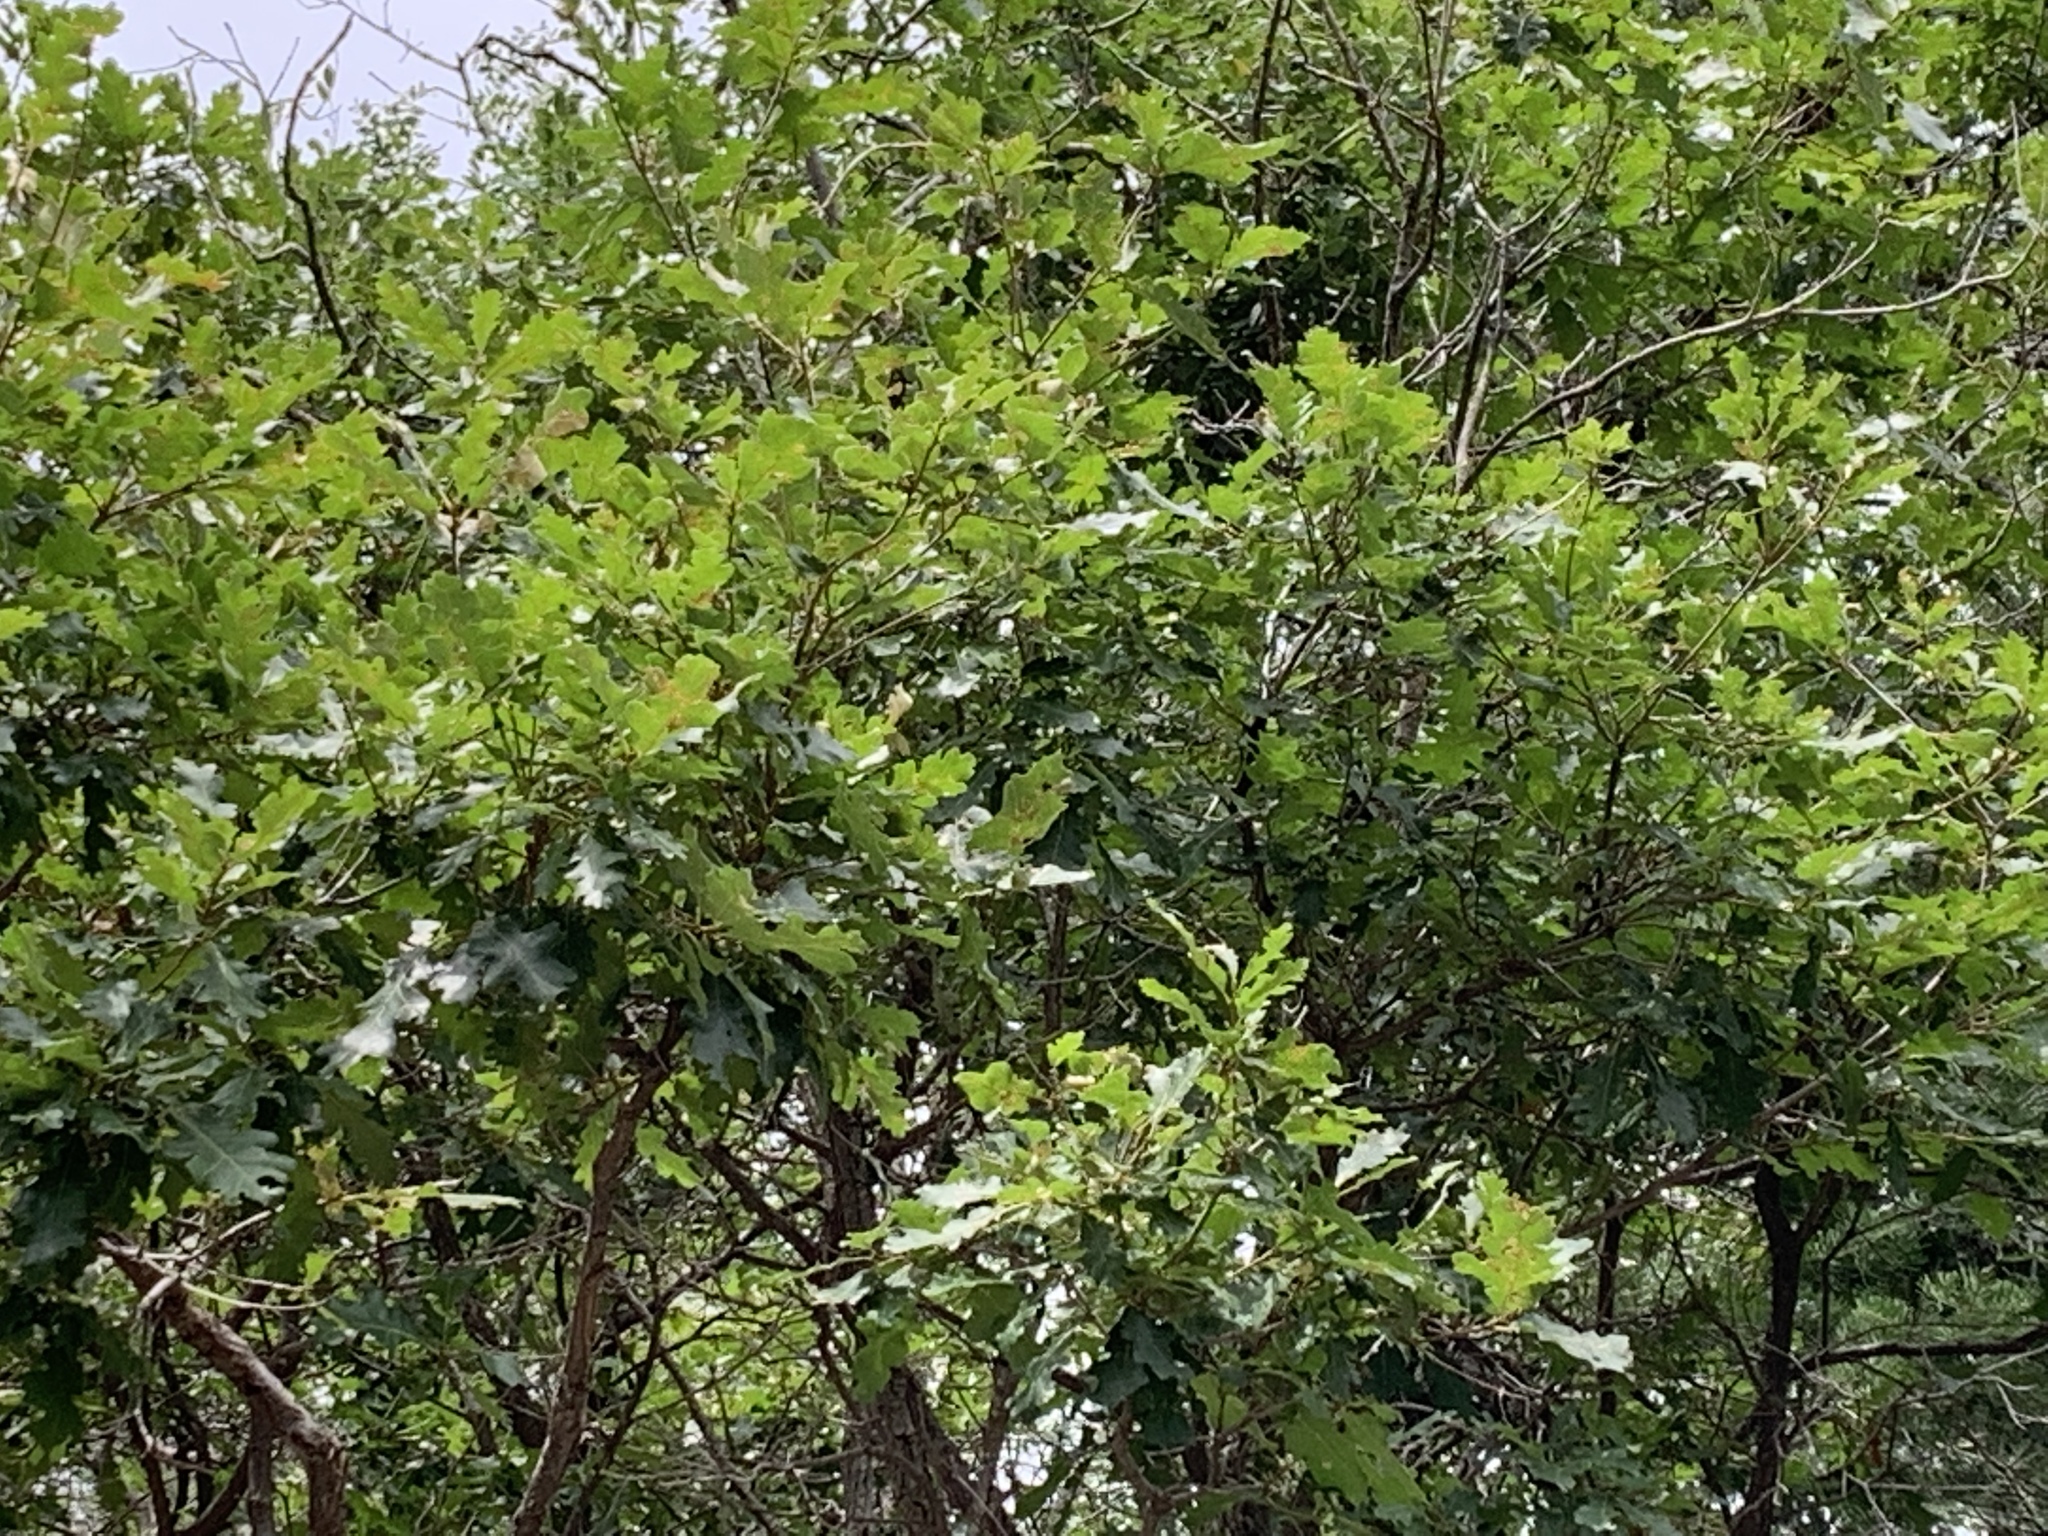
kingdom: Plantae
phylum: Tracheophyta
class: Magnoliopsida
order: Fagales
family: Fagaceae
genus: Quercus
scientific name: Quercus gambelii
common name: Gambel oak
